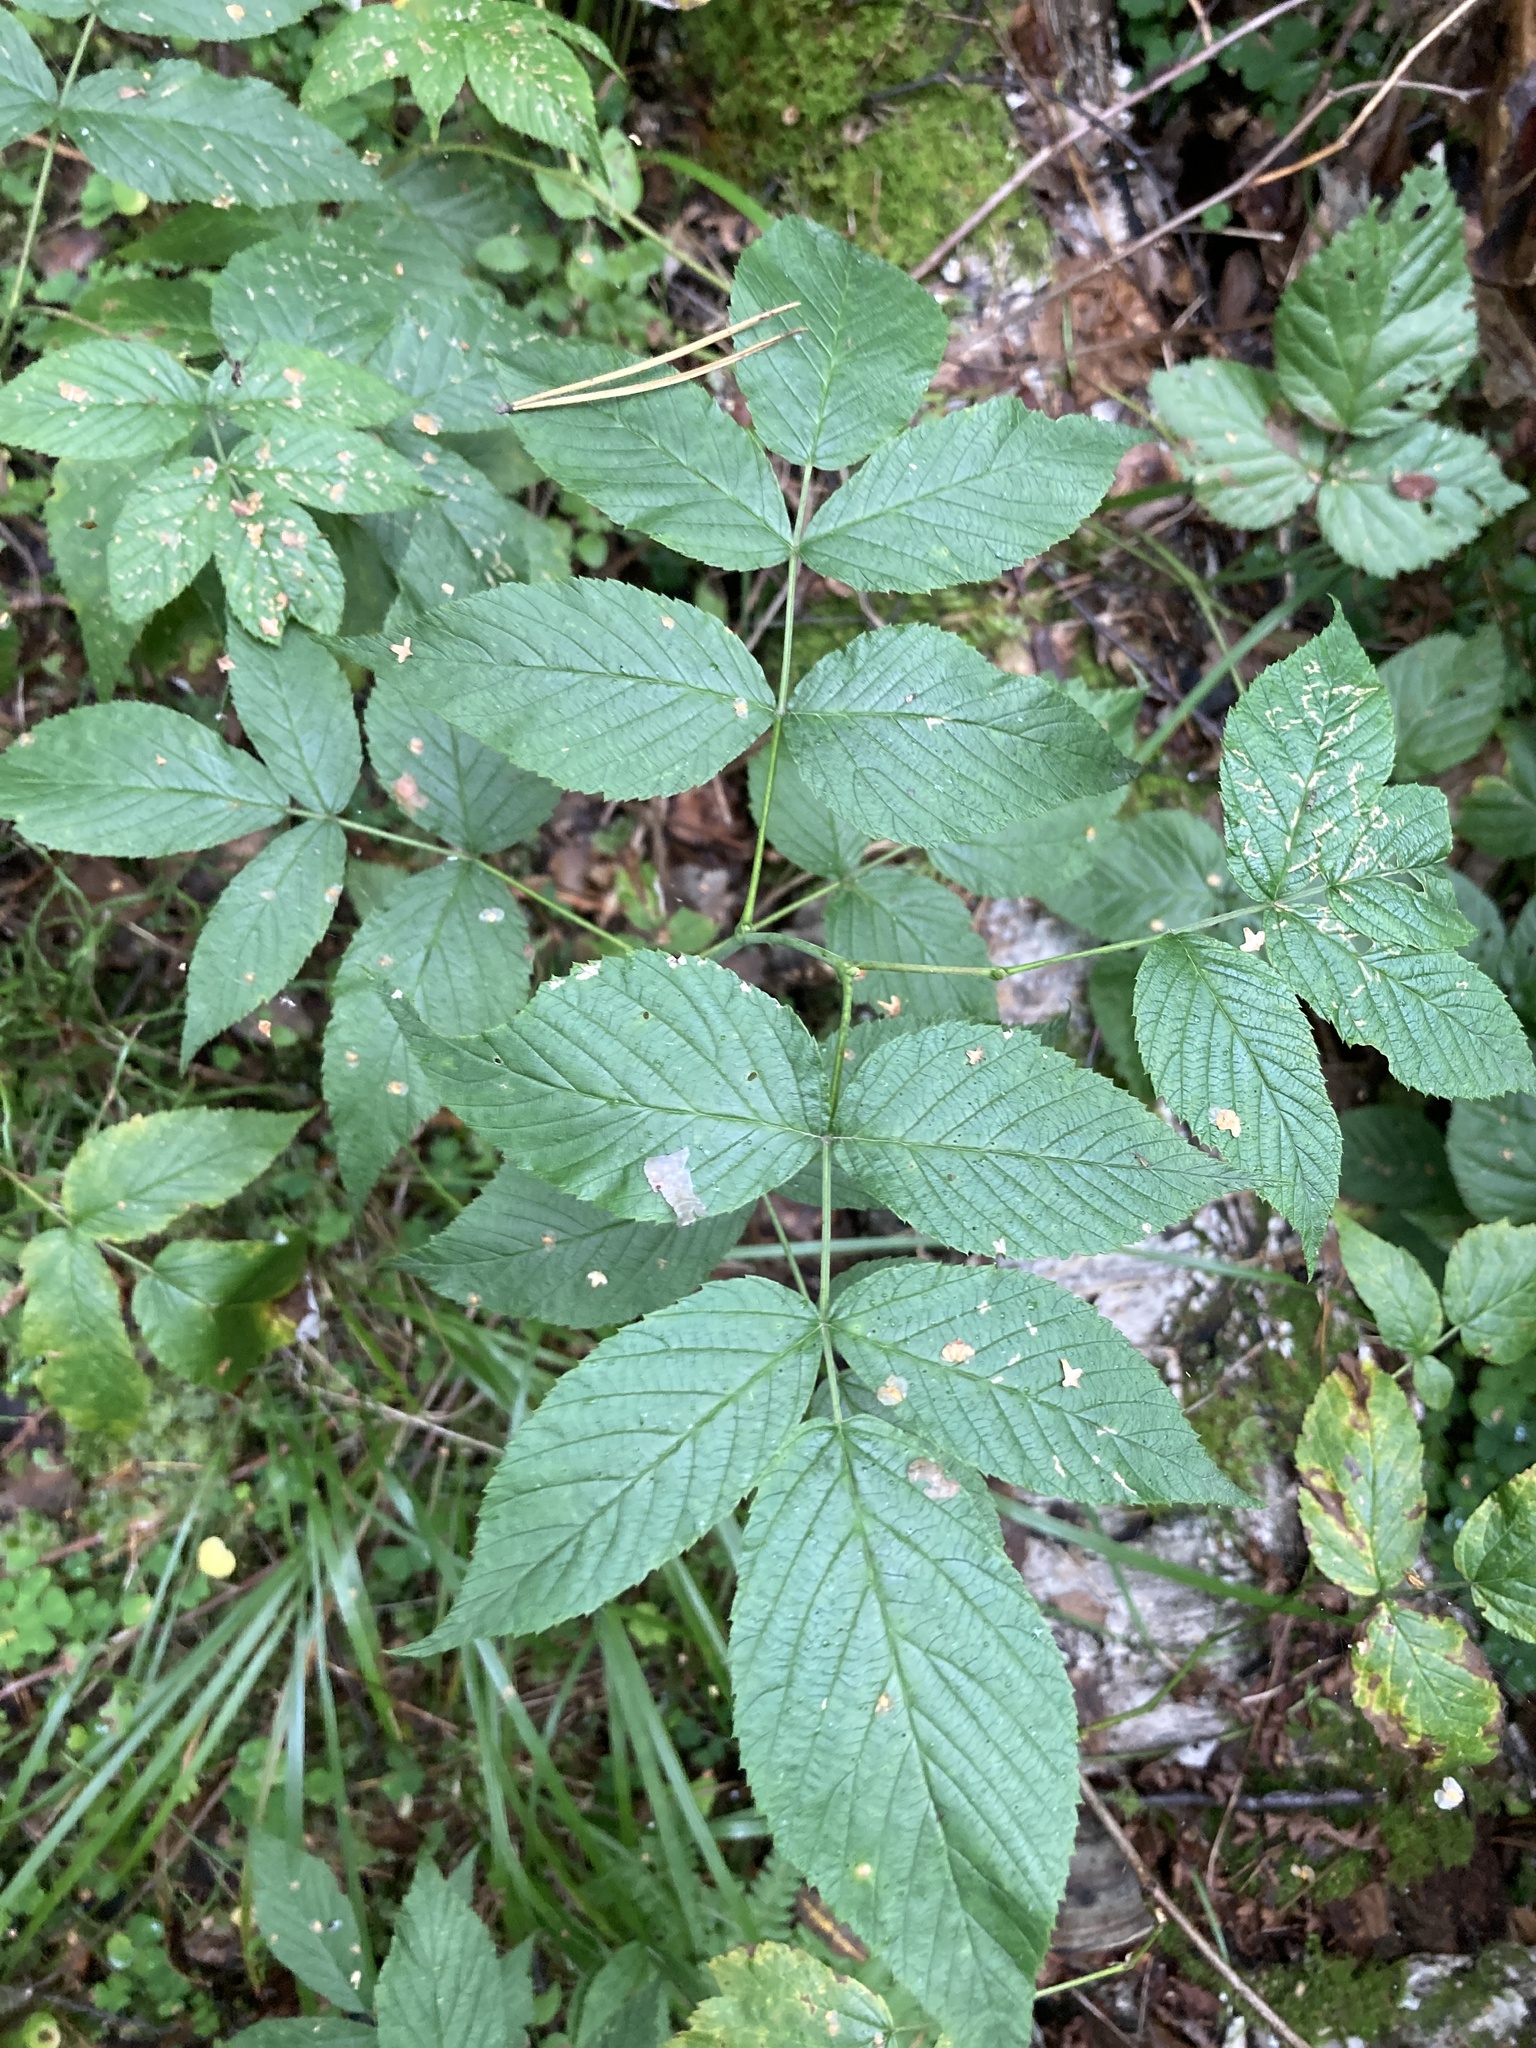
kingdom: Plantae
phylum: Tracheophyta
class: Magnoliopsida
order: Rosales
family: Rosaceae
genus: Rubus
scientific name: Rubus idaeus
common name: Raspberry
